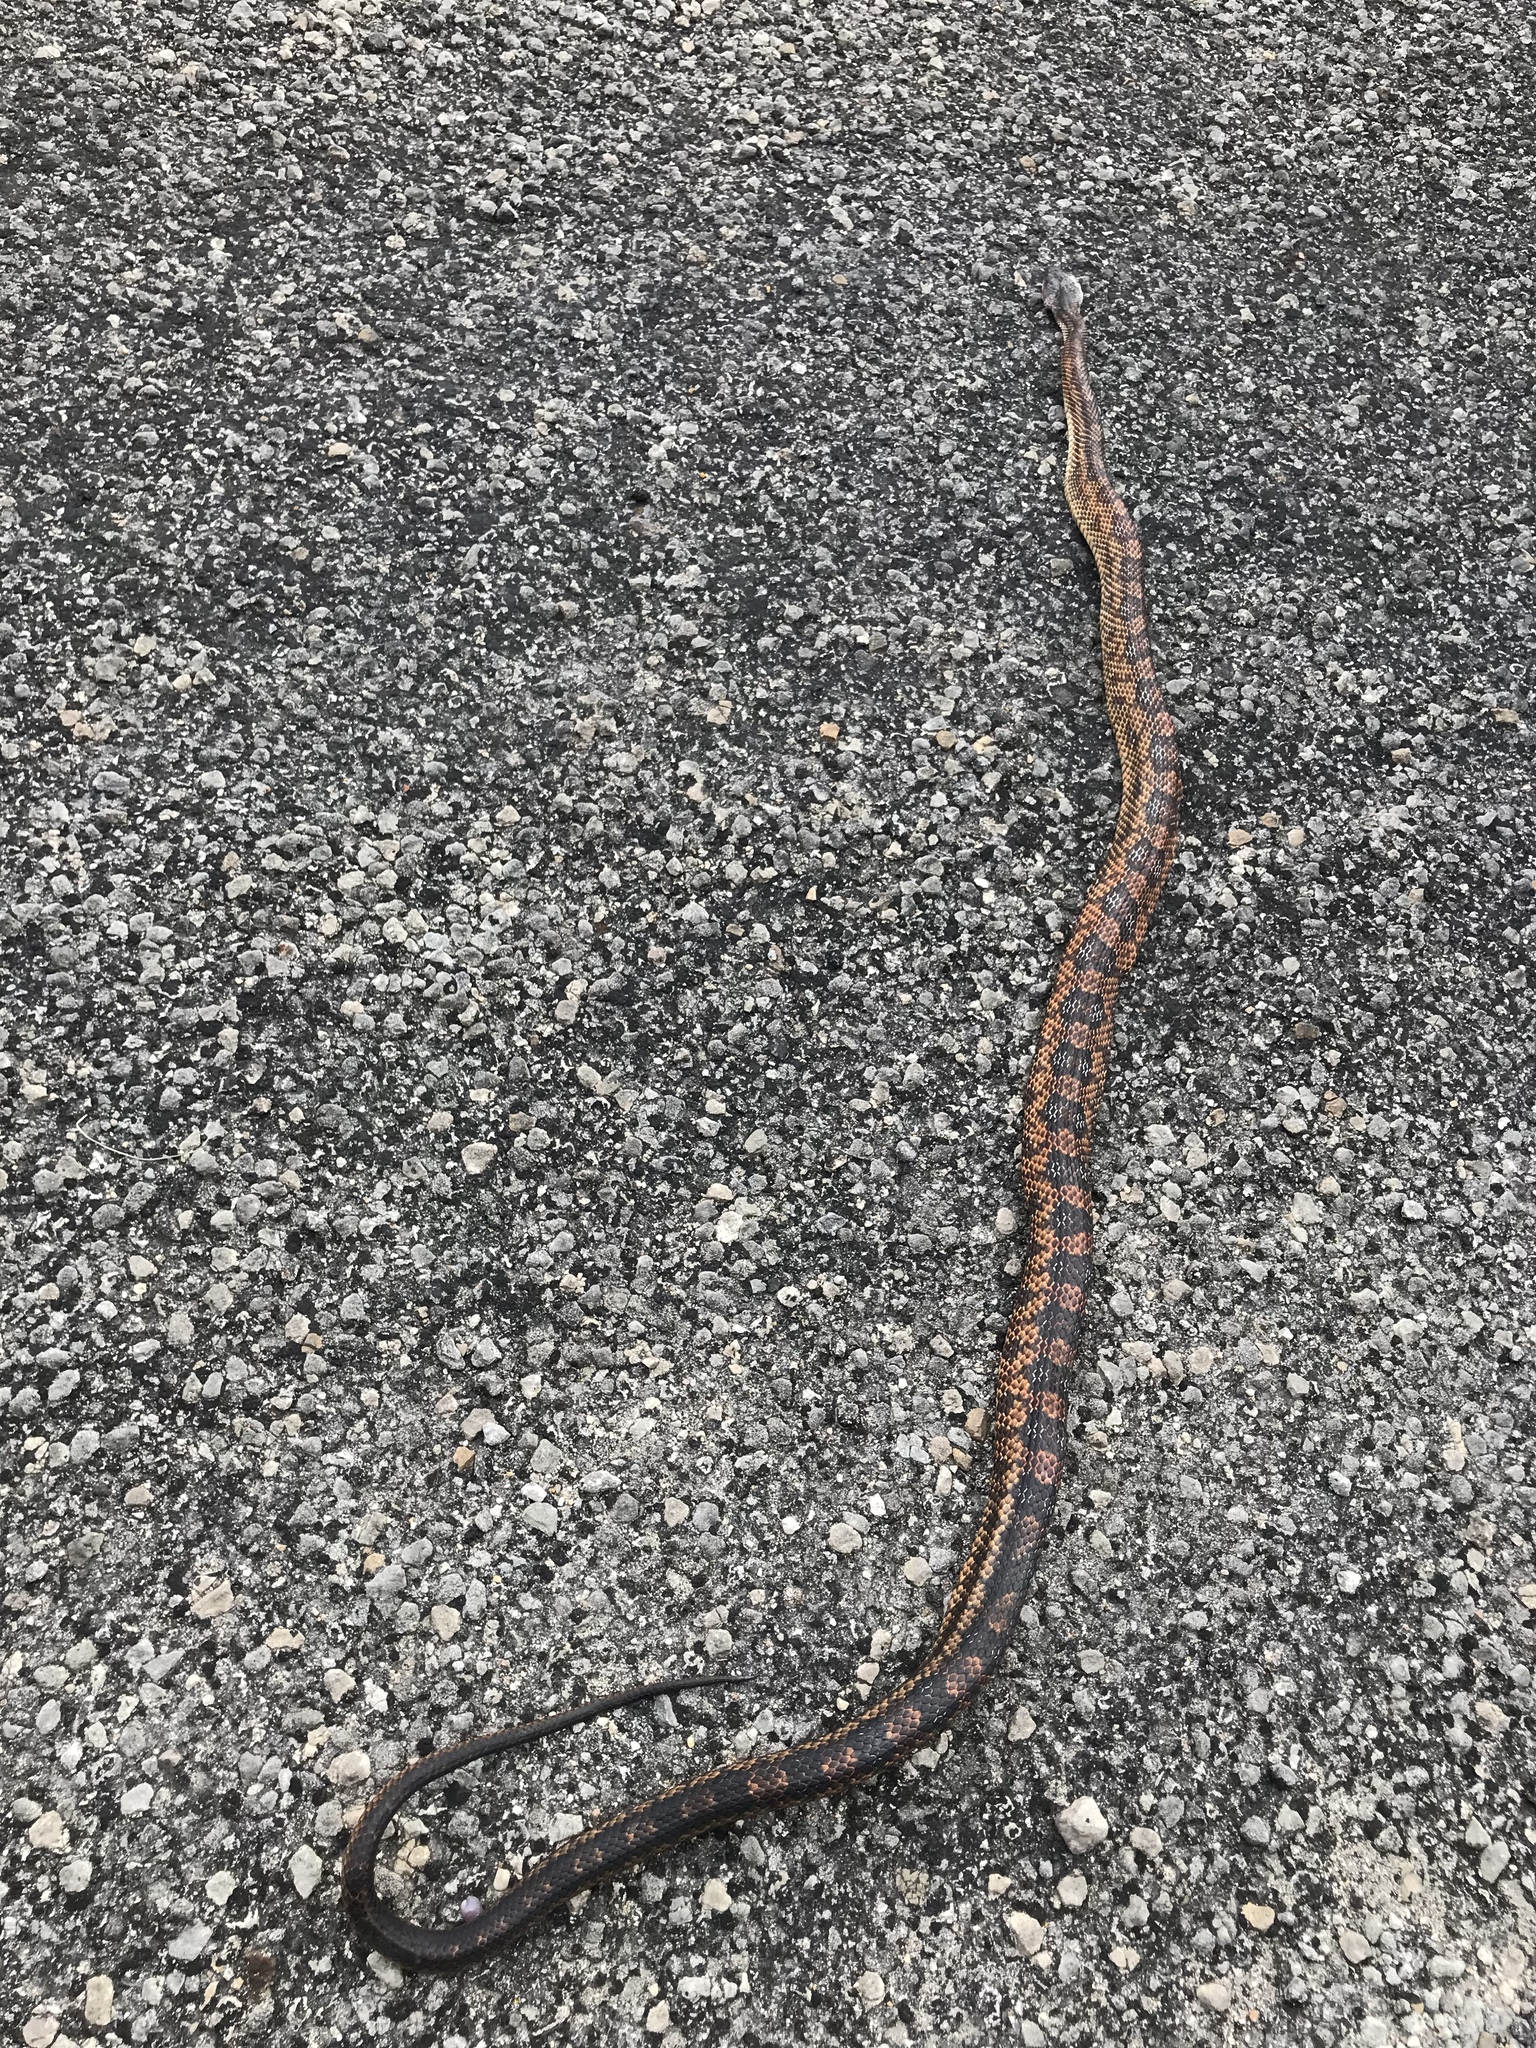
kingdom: Animalia
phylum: Chordata
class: Squamata
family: Colubridae
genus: Pantherophis
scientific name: Pantherophis obsoletus
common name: Black rat snake
